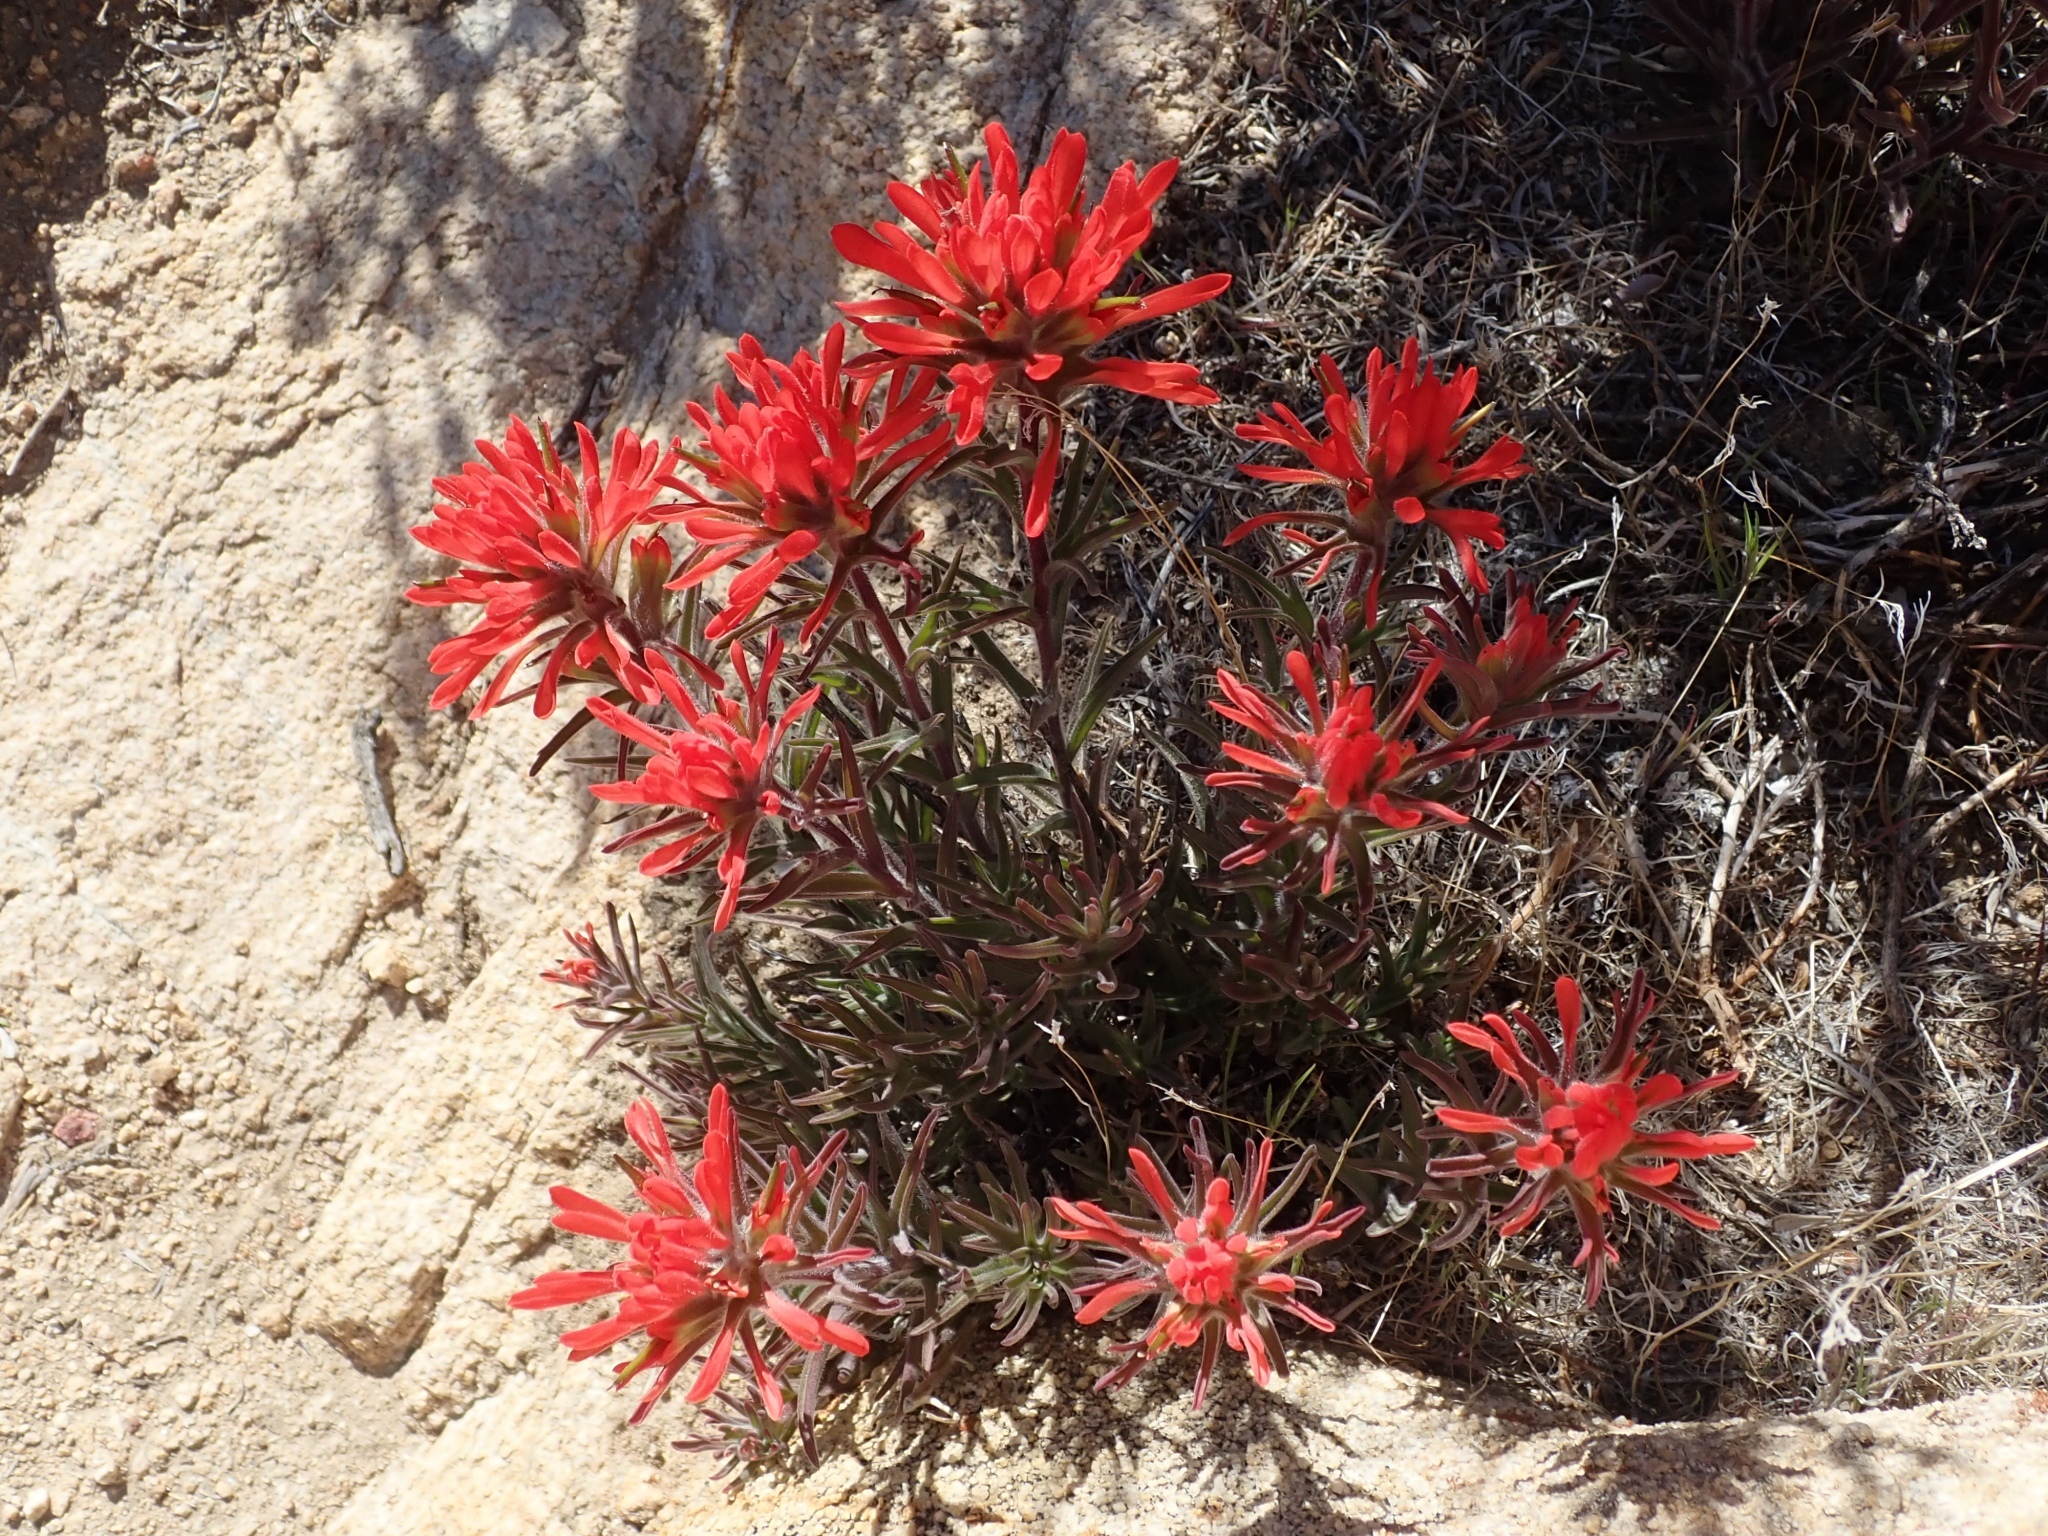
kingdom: Plantae
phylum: Tracheophyta
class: Magnoliopsida
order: Lamiales
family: Orobanchaceae
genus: Castilleja
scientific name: Castilleja chromosa
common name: Desert paintbrush
